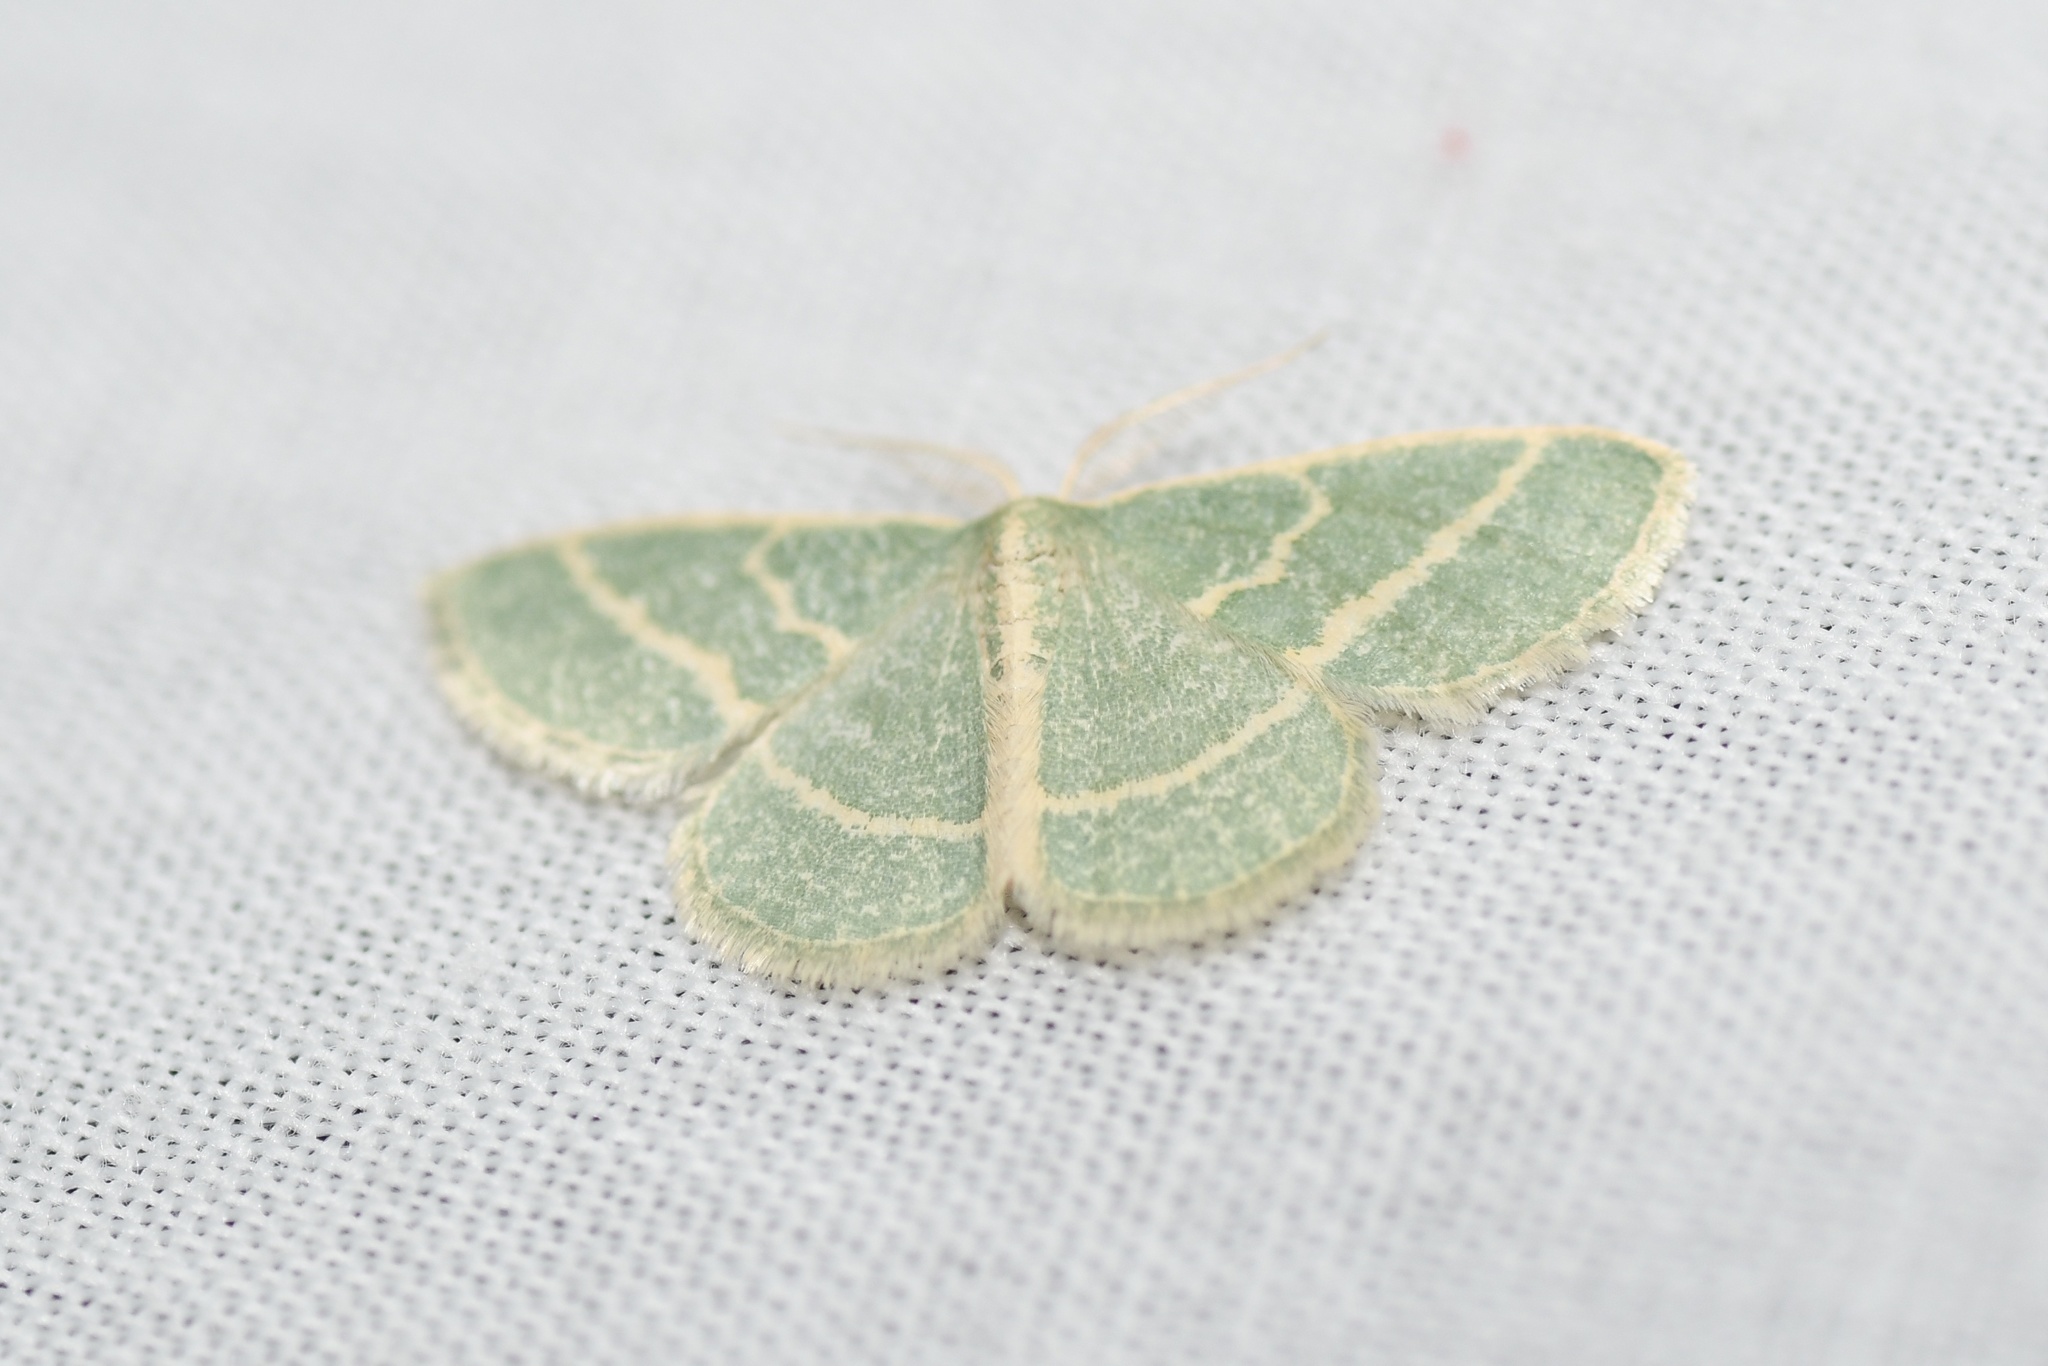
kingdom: Animalia
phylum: Arthropoda
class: Insecta
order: Lepidoptera
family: Geometridae
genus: Chlorochlamys
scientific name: Chlorochlamys chloroleucaria
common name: Blackberry looper
